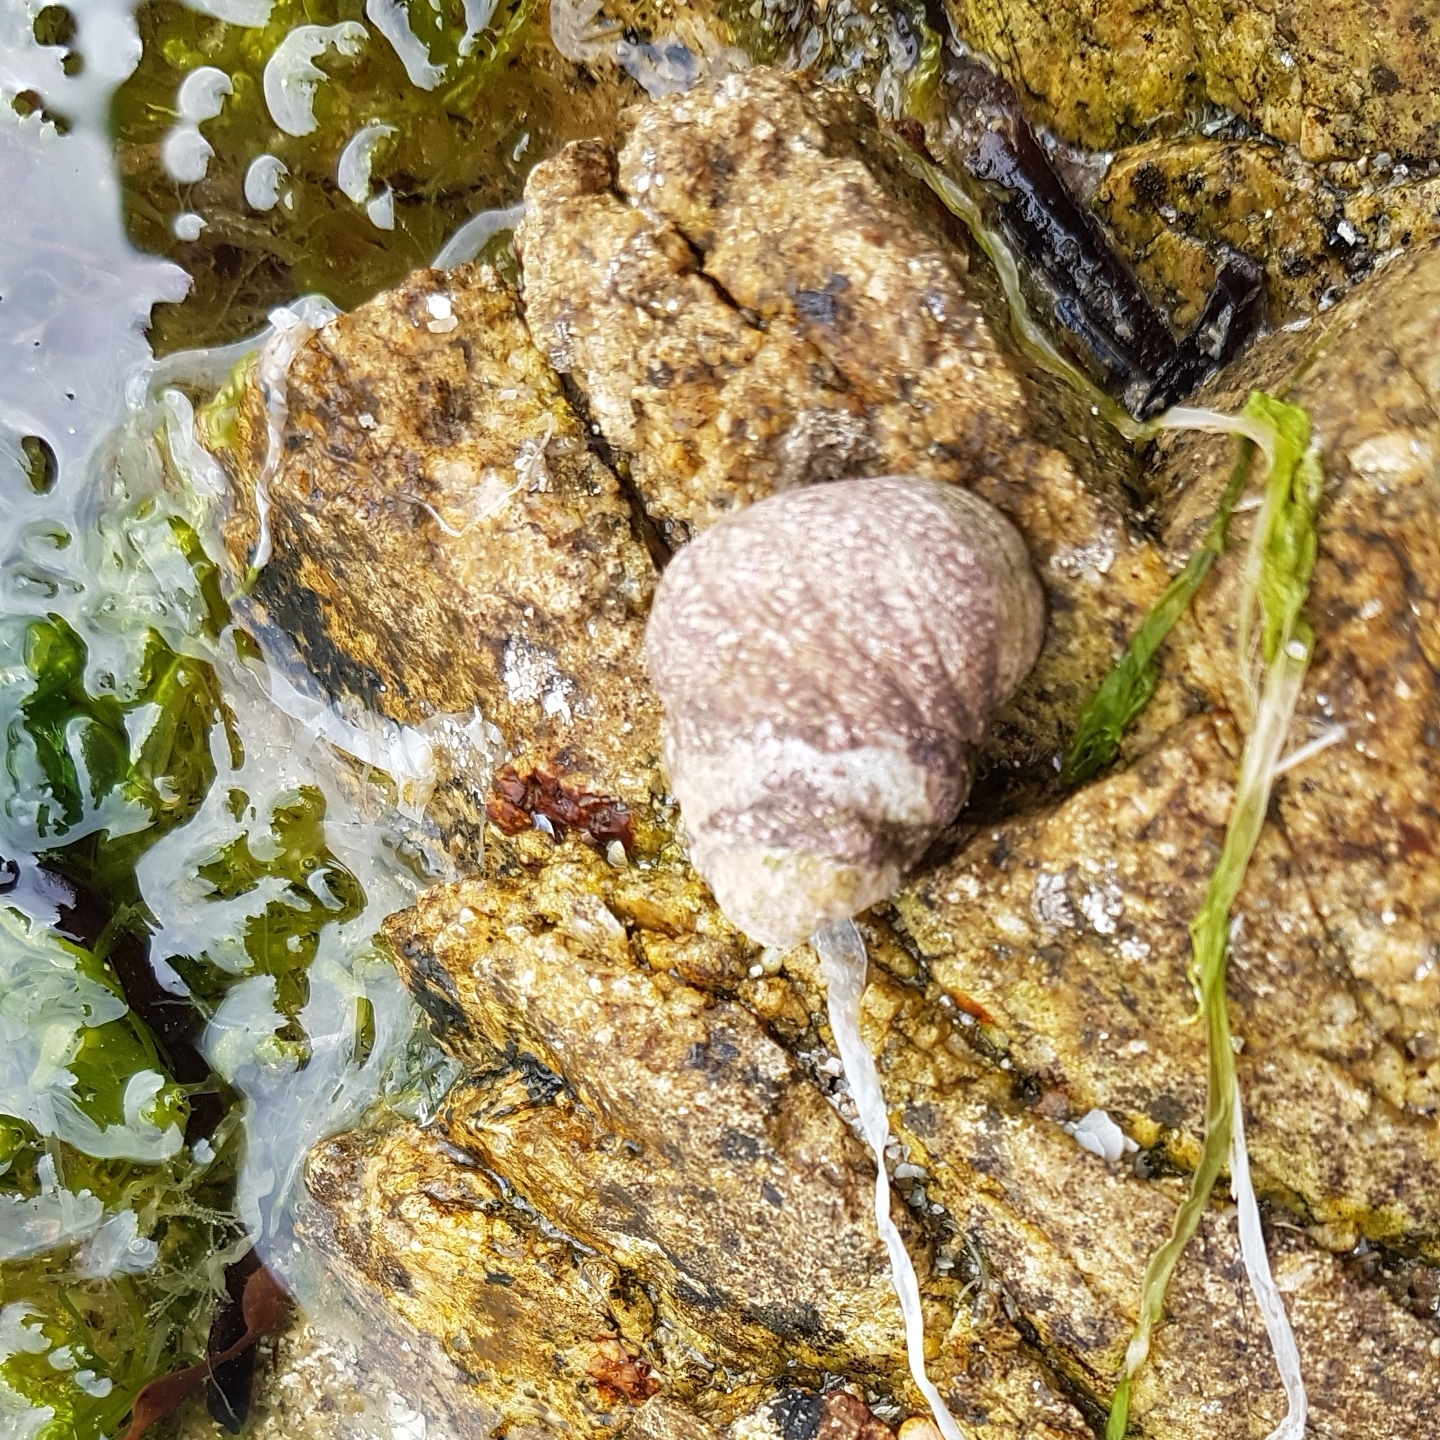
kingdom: Animalia
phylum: Mollusca
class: Gastropoda
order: Trochida
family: Trochidae
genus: Phorcus
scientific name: Phorcus lineatus
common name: Toothed top shell
